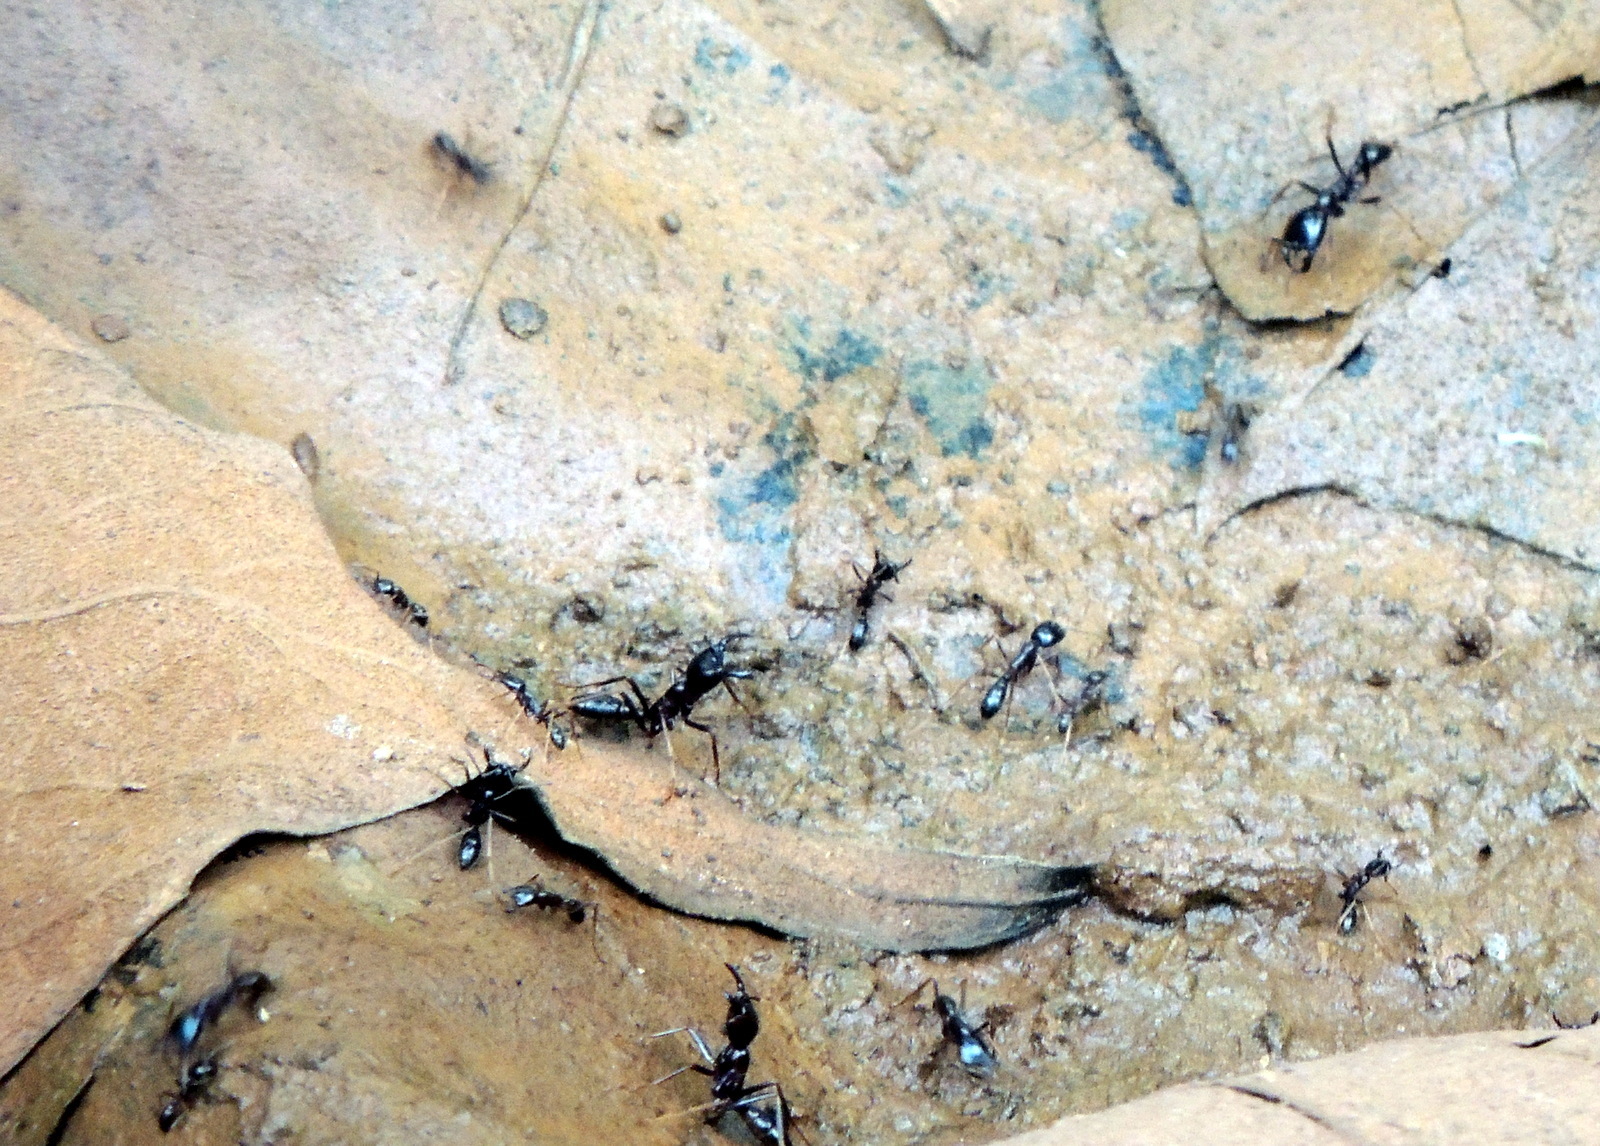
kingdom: Animalia
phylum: Arthropoda
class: Insecta
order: Hymenoptera
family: Formicidae
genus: Dorylus
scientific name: Dorylus
